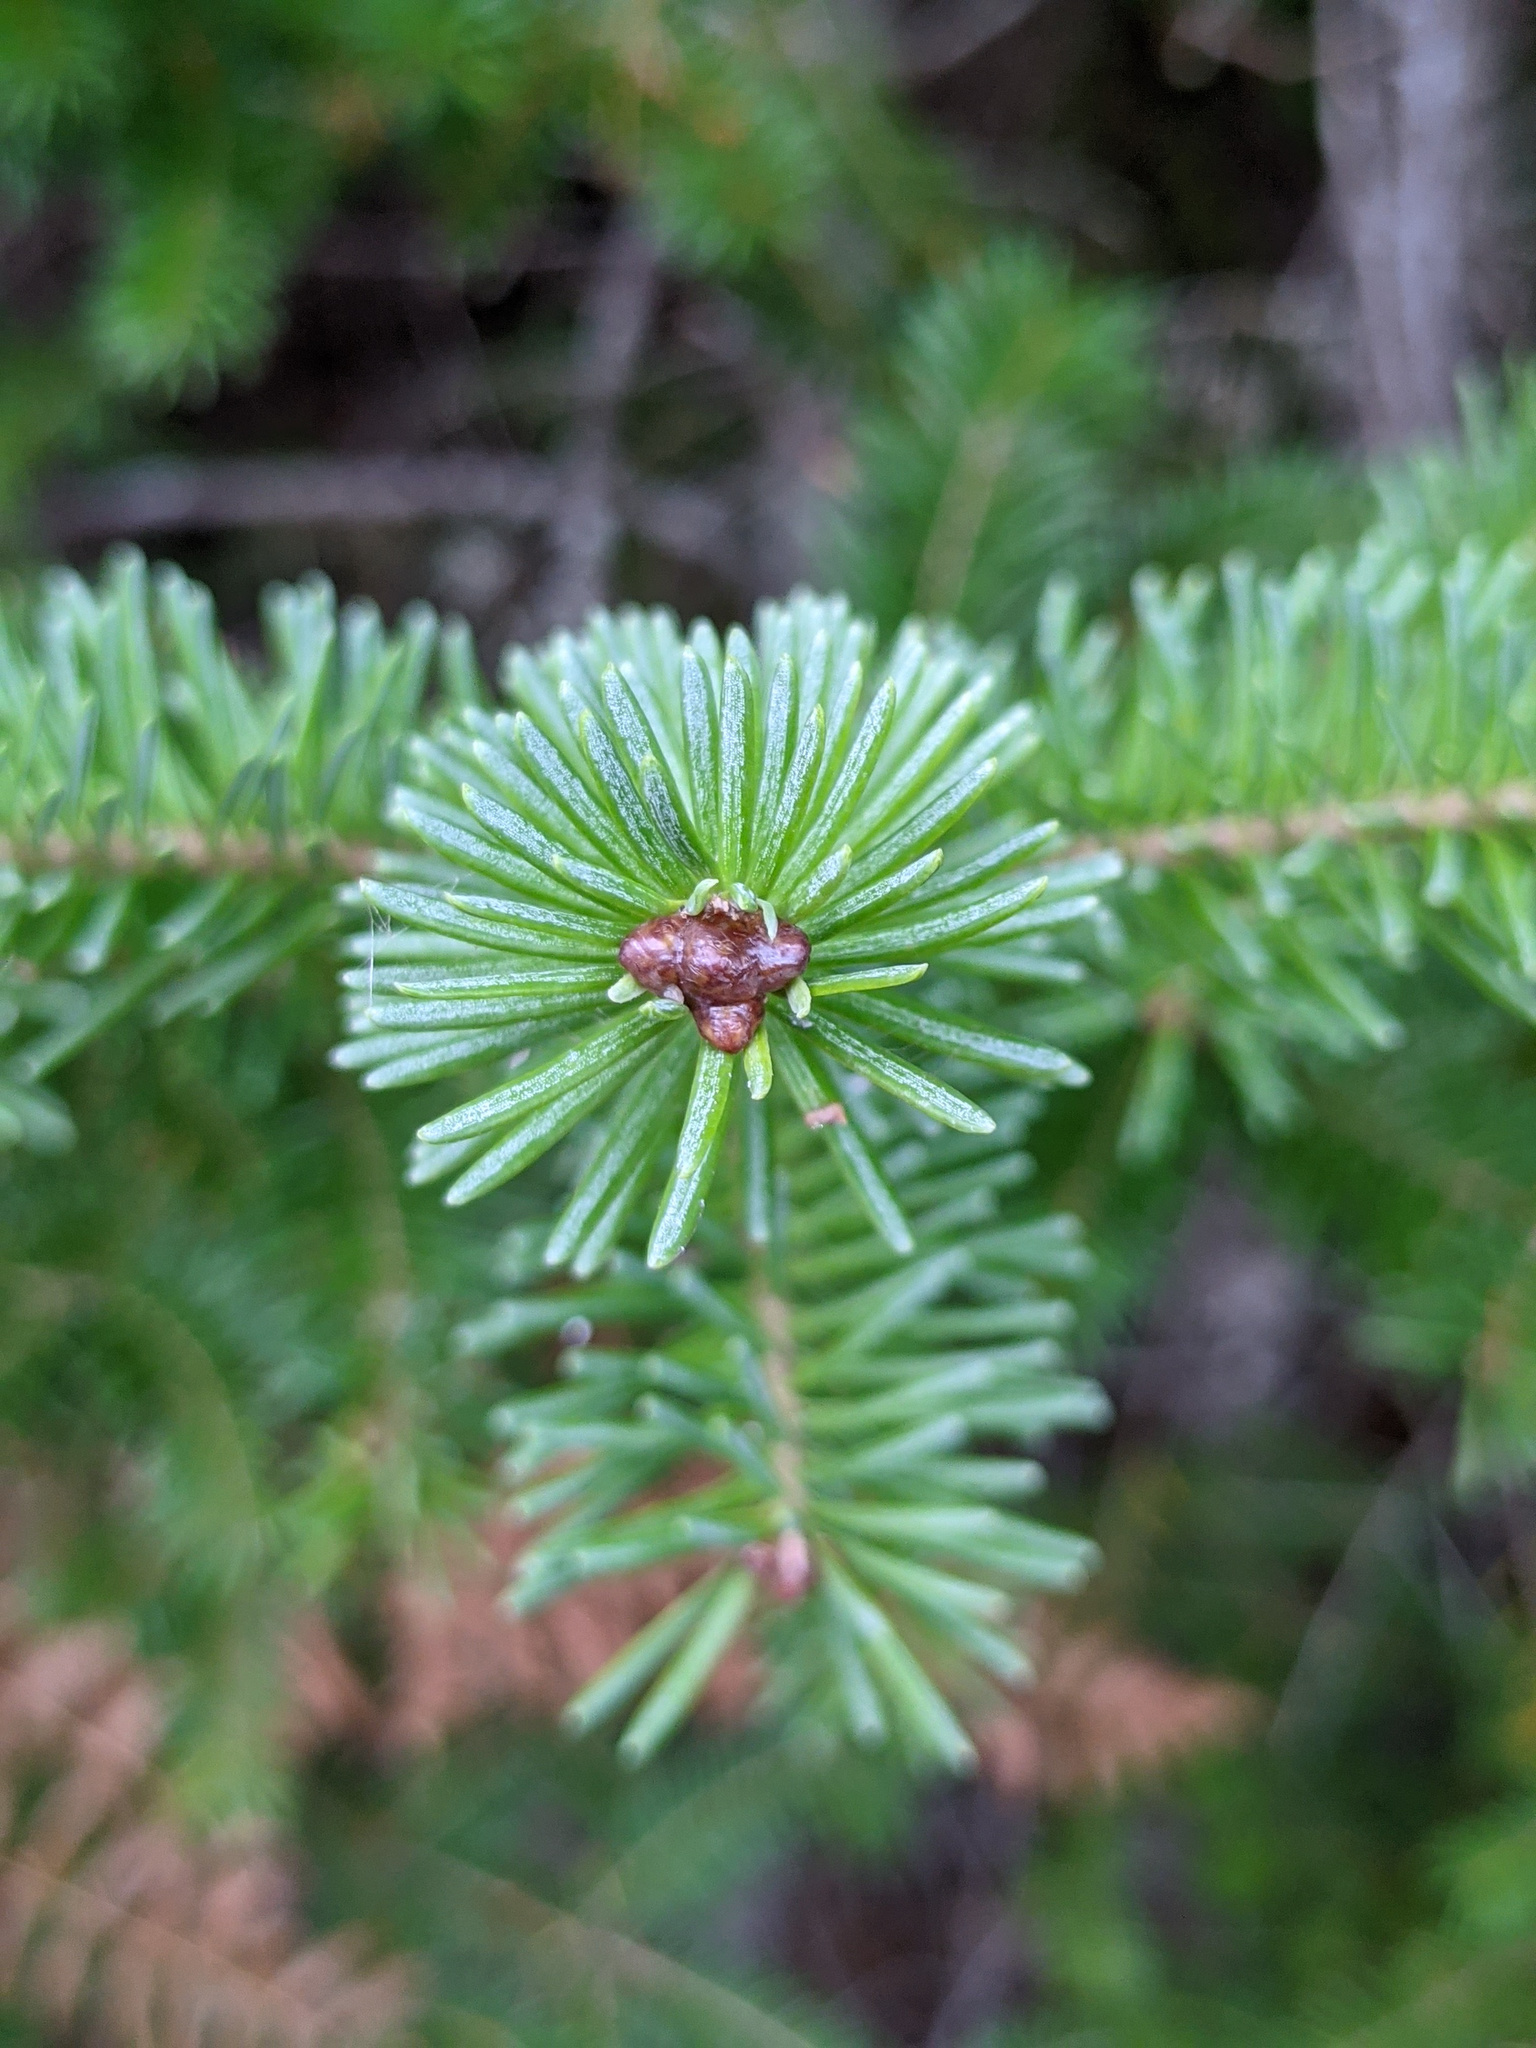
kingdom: Plantae
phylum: Tracheophyta
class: Pinopsida
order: Pinales
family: Pinaceae
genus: Abies
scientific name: Abies balsamea
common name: Balsam fir
